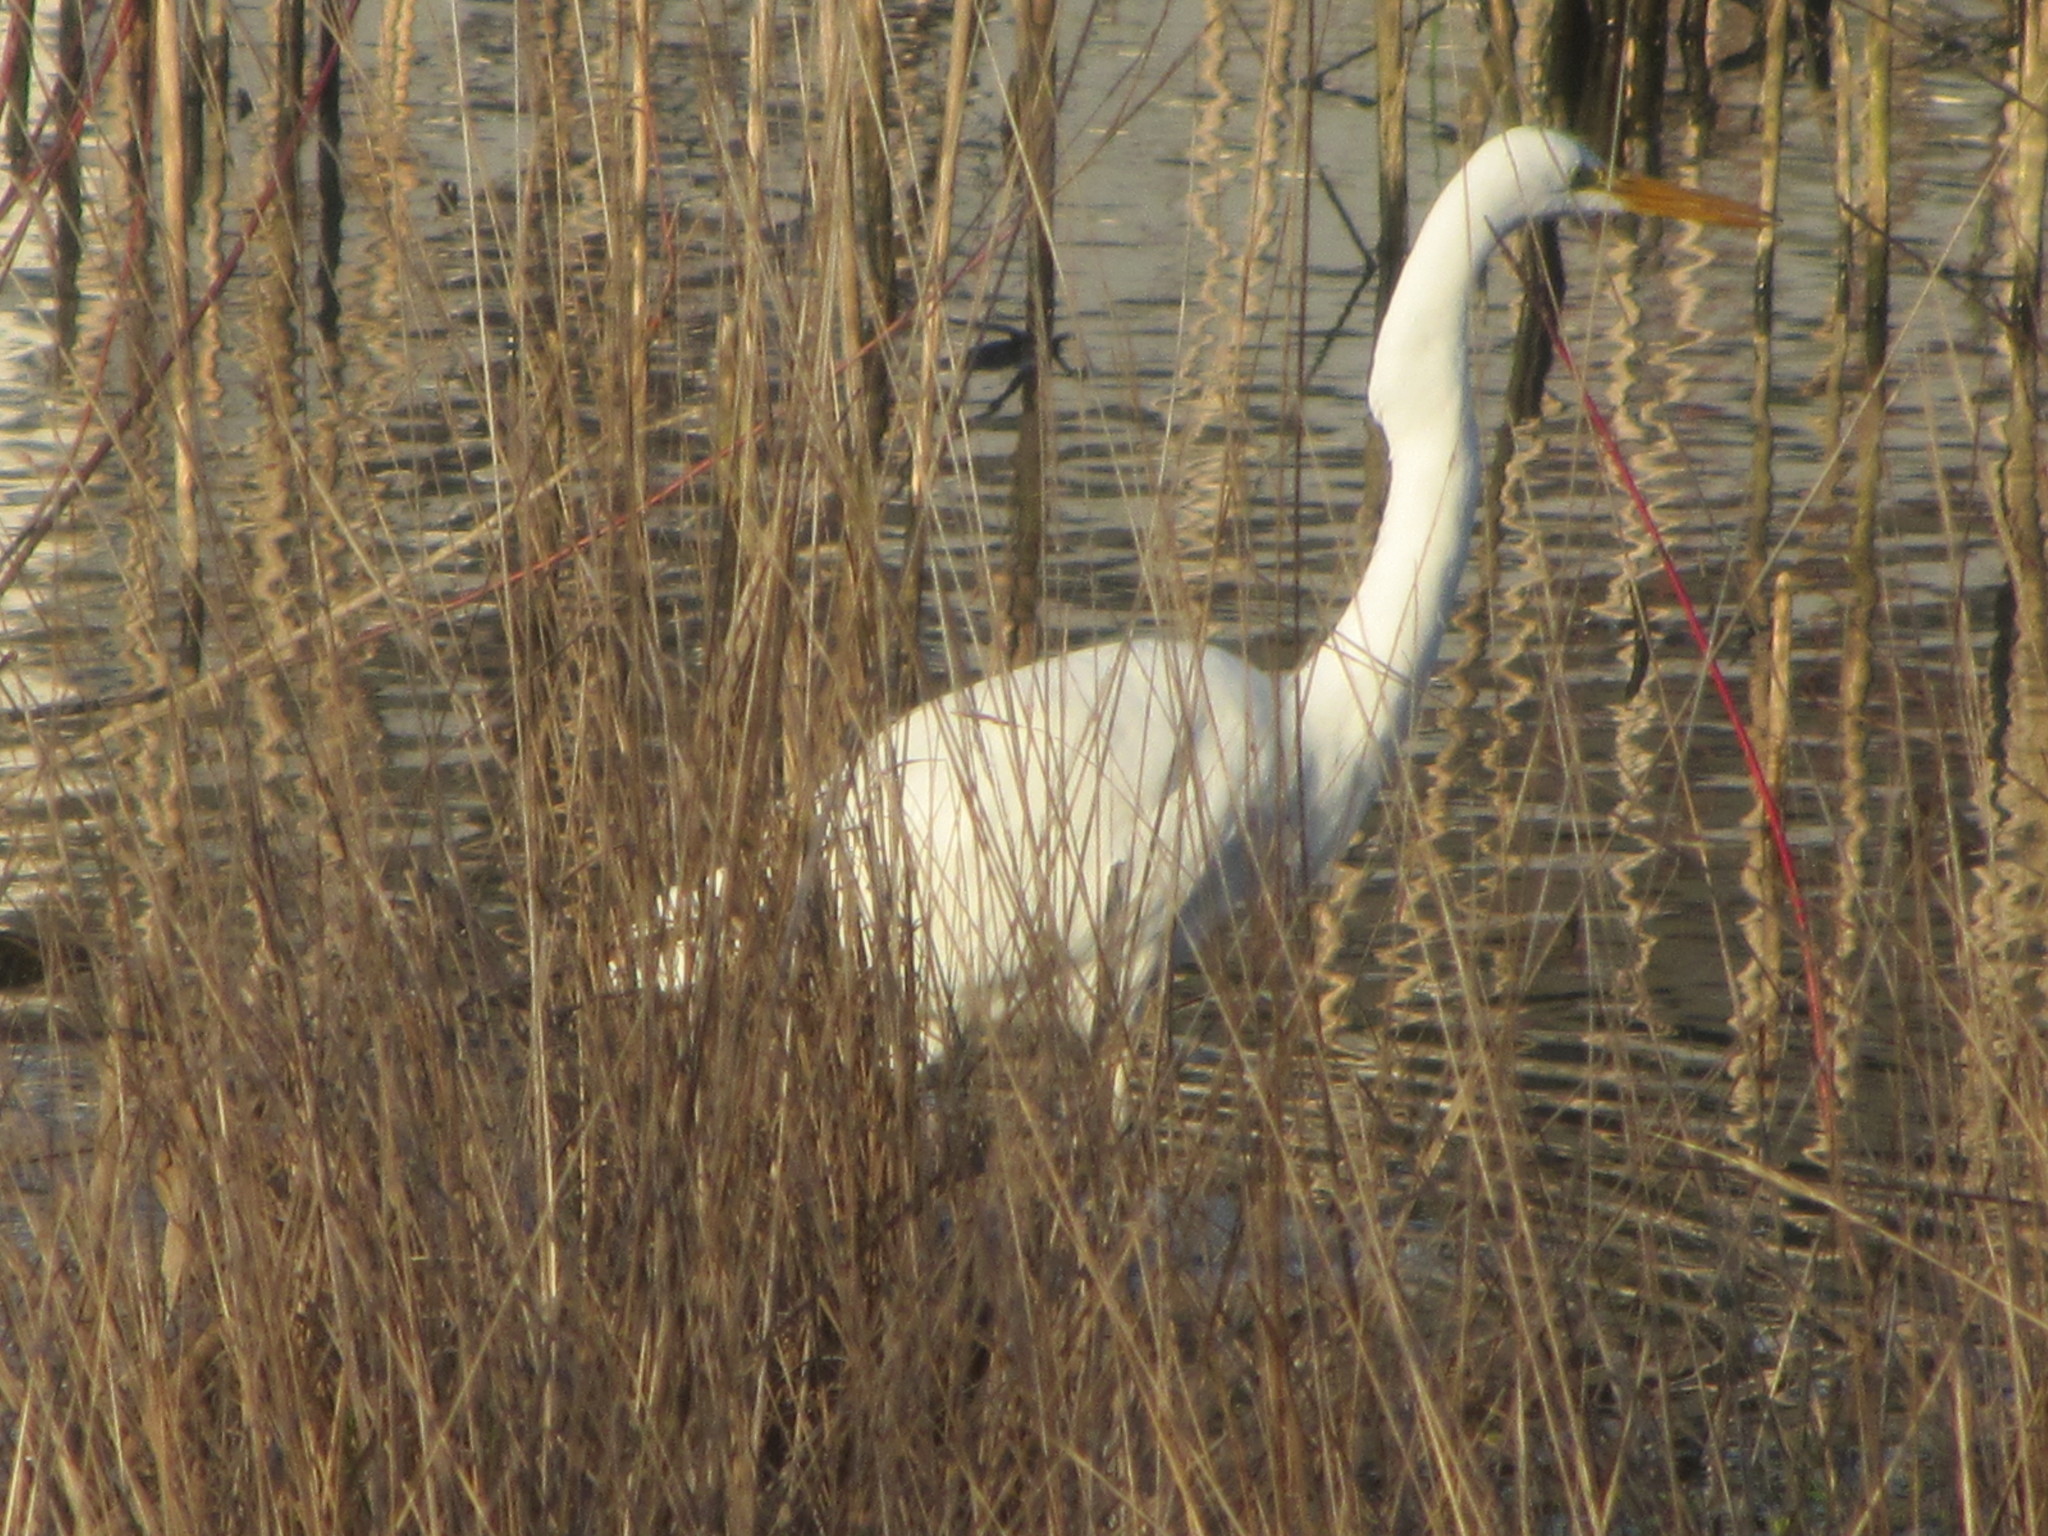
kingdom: Animalia
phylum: Chordata
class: Aves
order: Pelecaniformes
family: Ardeidae
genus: Ardea
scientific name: Ardea alba
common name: Great egret
